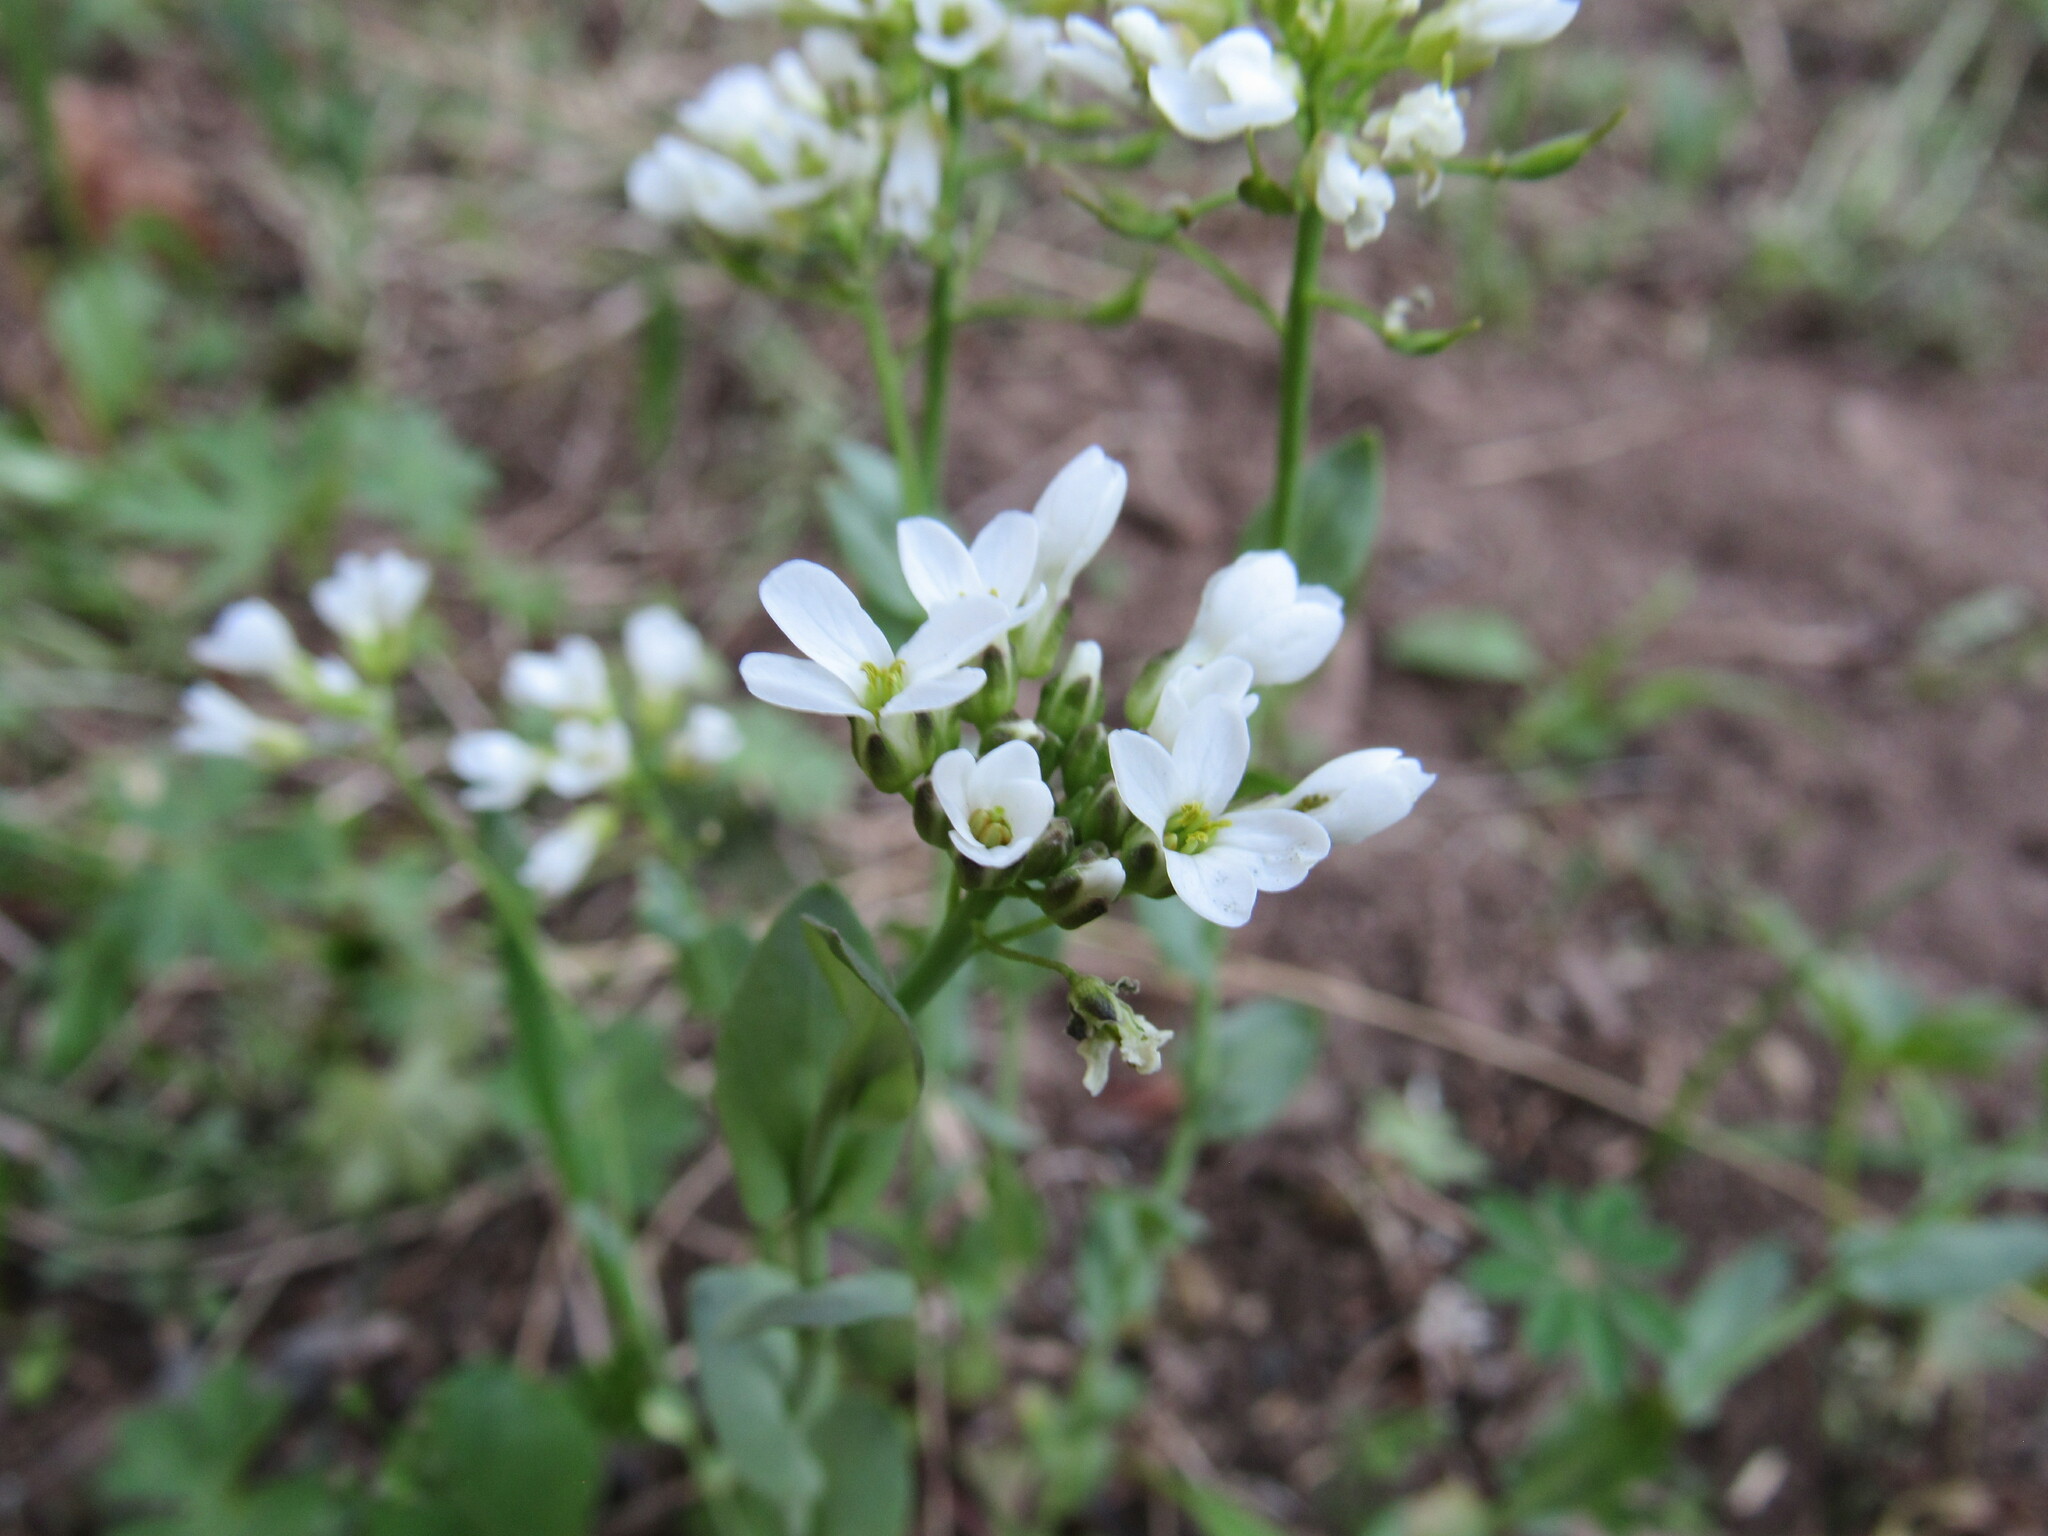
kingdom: Plantae
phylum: Tracheophyta
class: Magnoliopsida
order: Brassicales
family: Brassicaceae
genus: Noccaea
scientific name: Noccaea fendleri
